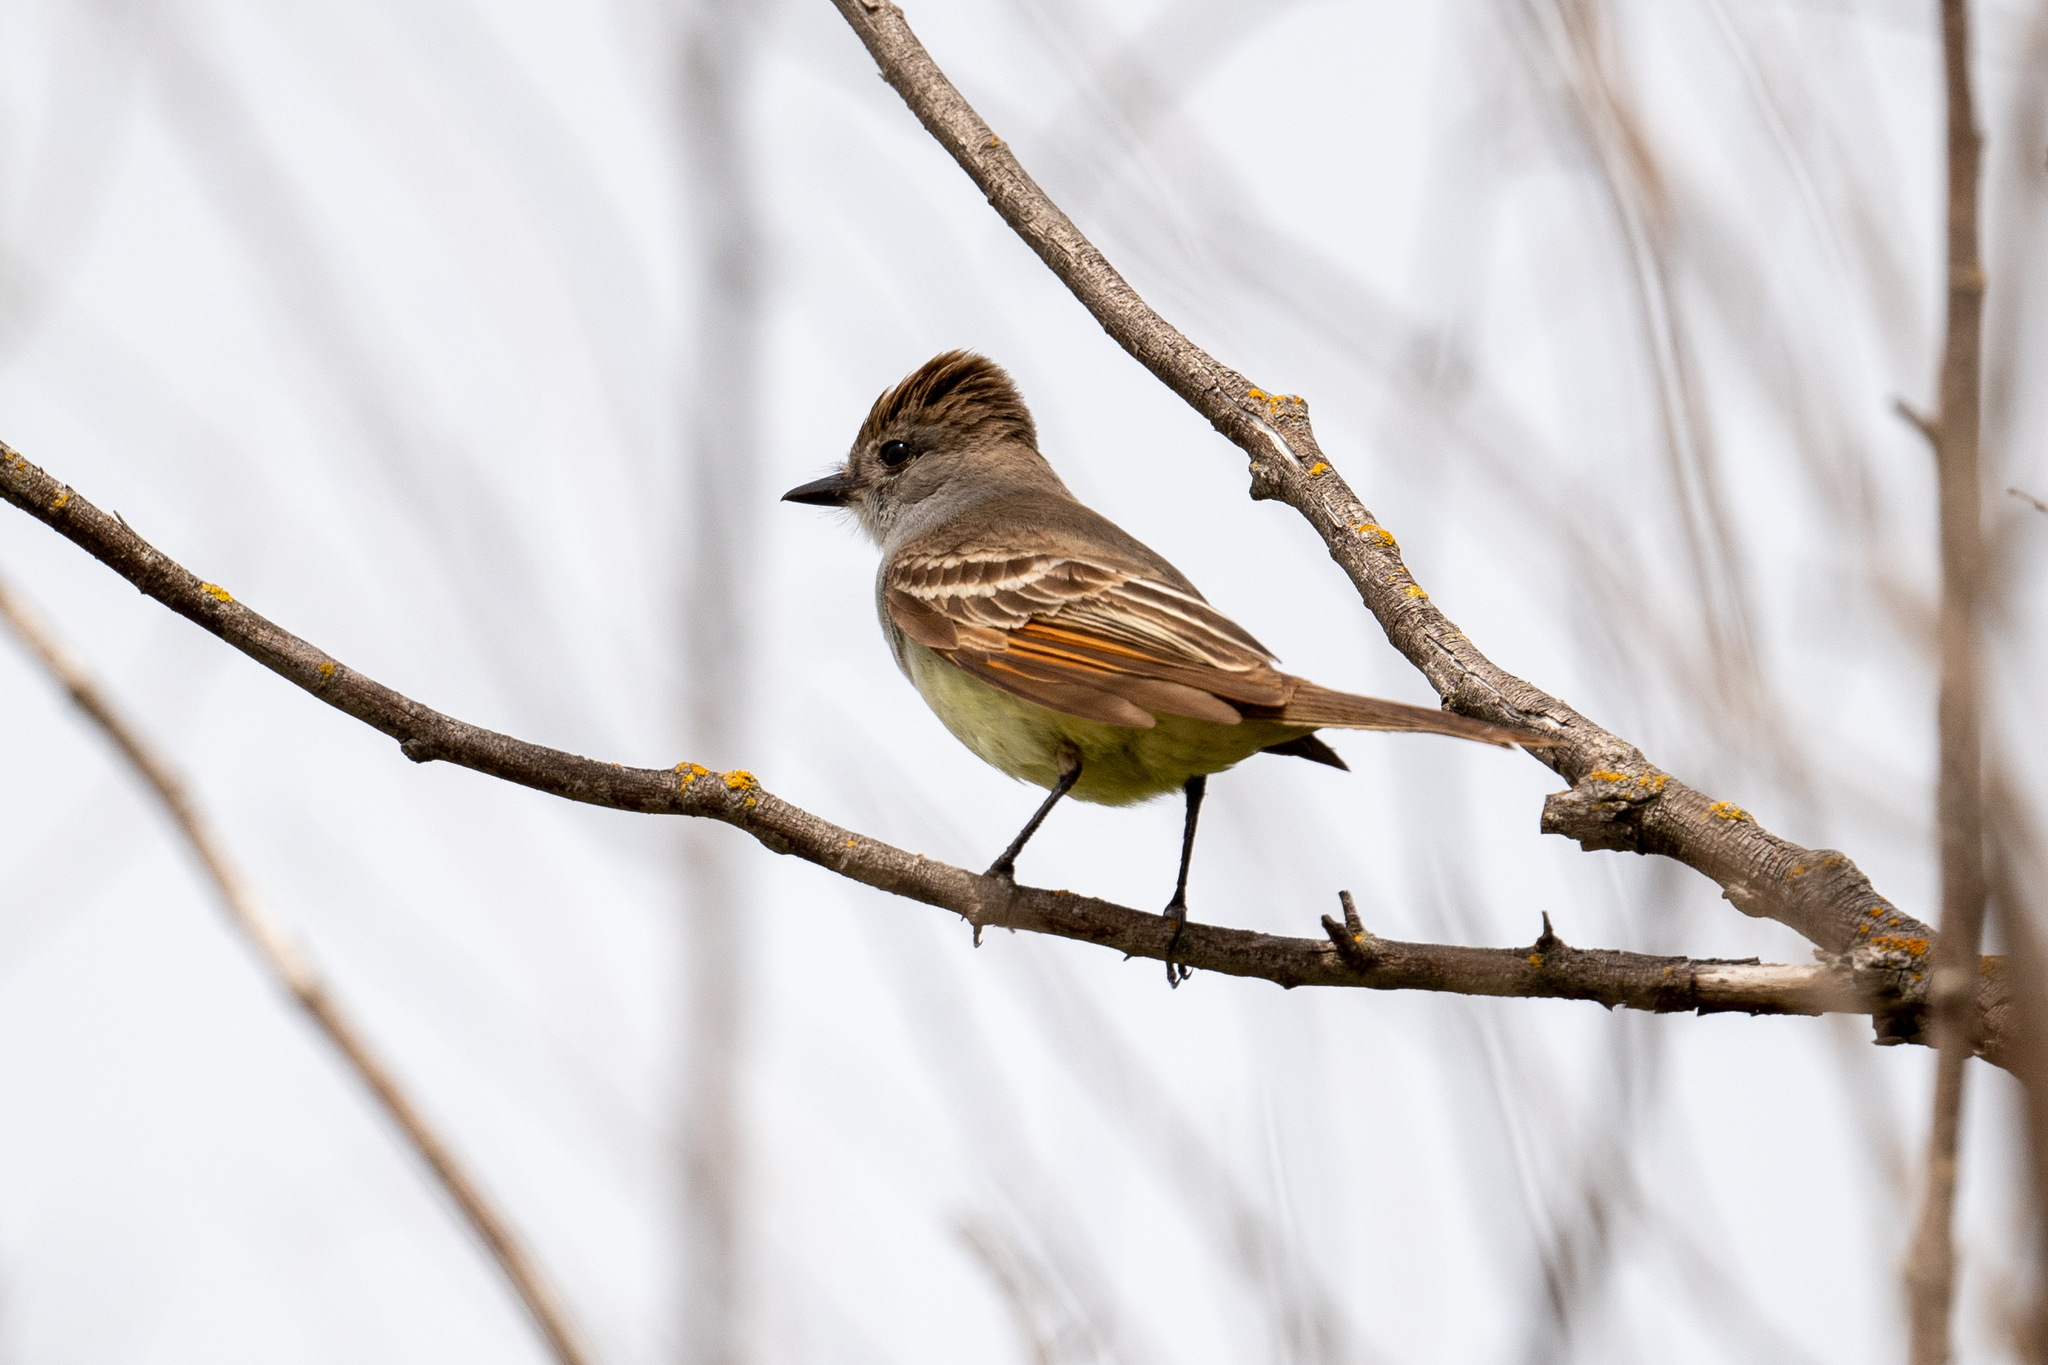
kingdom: Animalia
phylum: Chordata
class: Aves
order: Passeriformes
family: Tyrannidae
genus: Myiarchus
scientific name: Myiarchus cinerascens
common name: Ash-throated flycatcher
